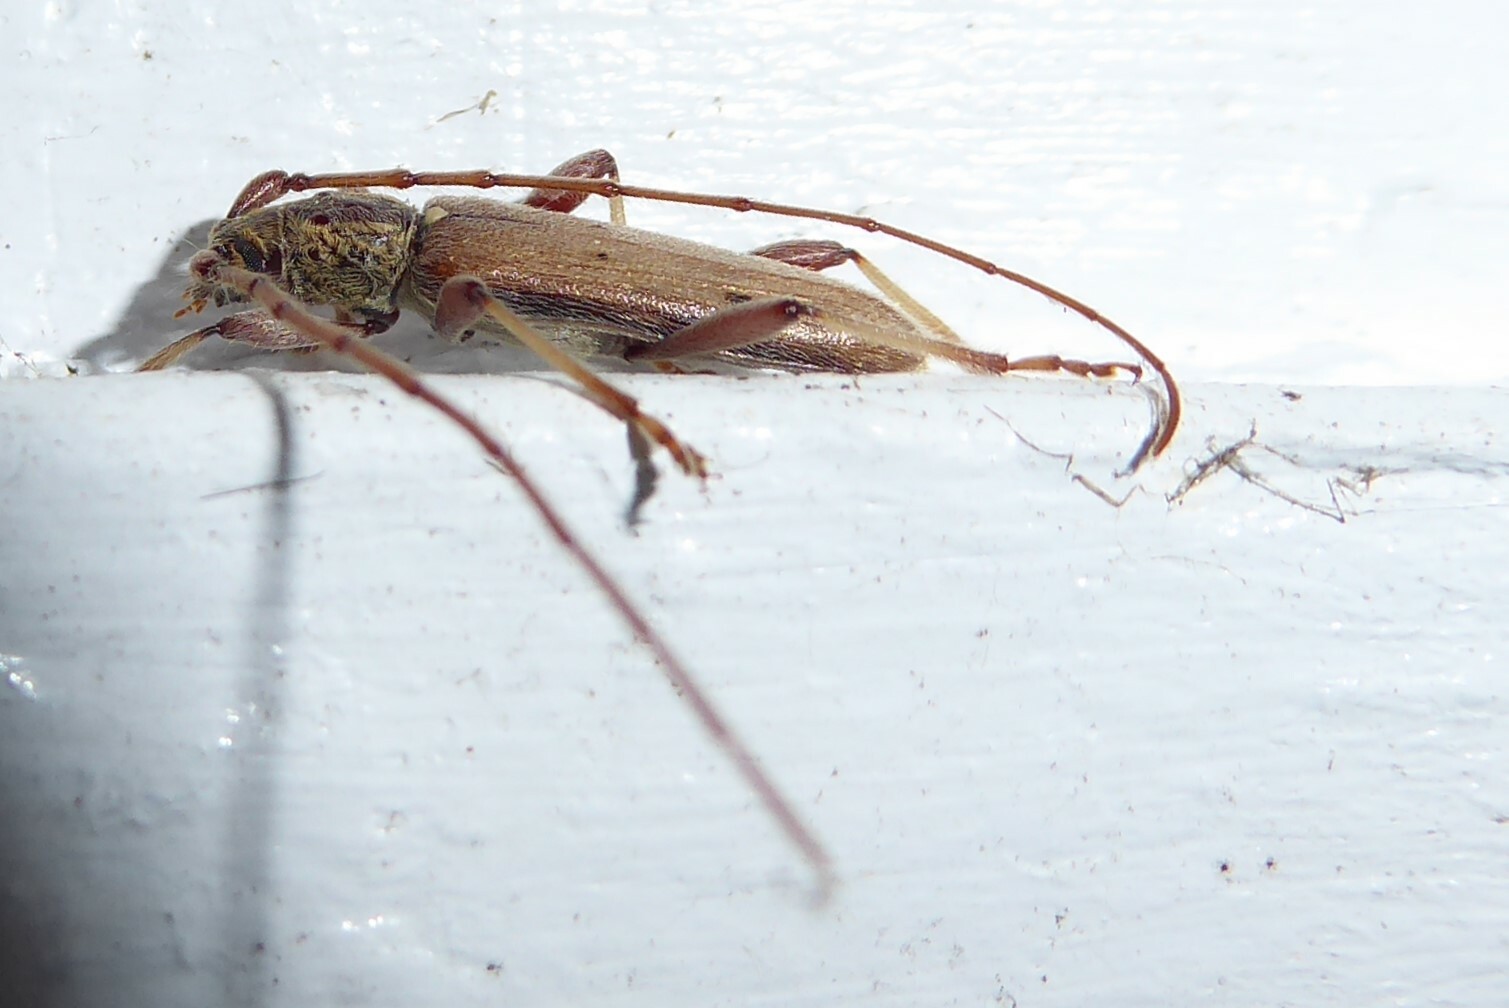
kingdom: Animalia
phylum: Arthropoda
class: Insecta
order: Coleoptera
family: Cerambycidae
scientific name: Cerambycidae
